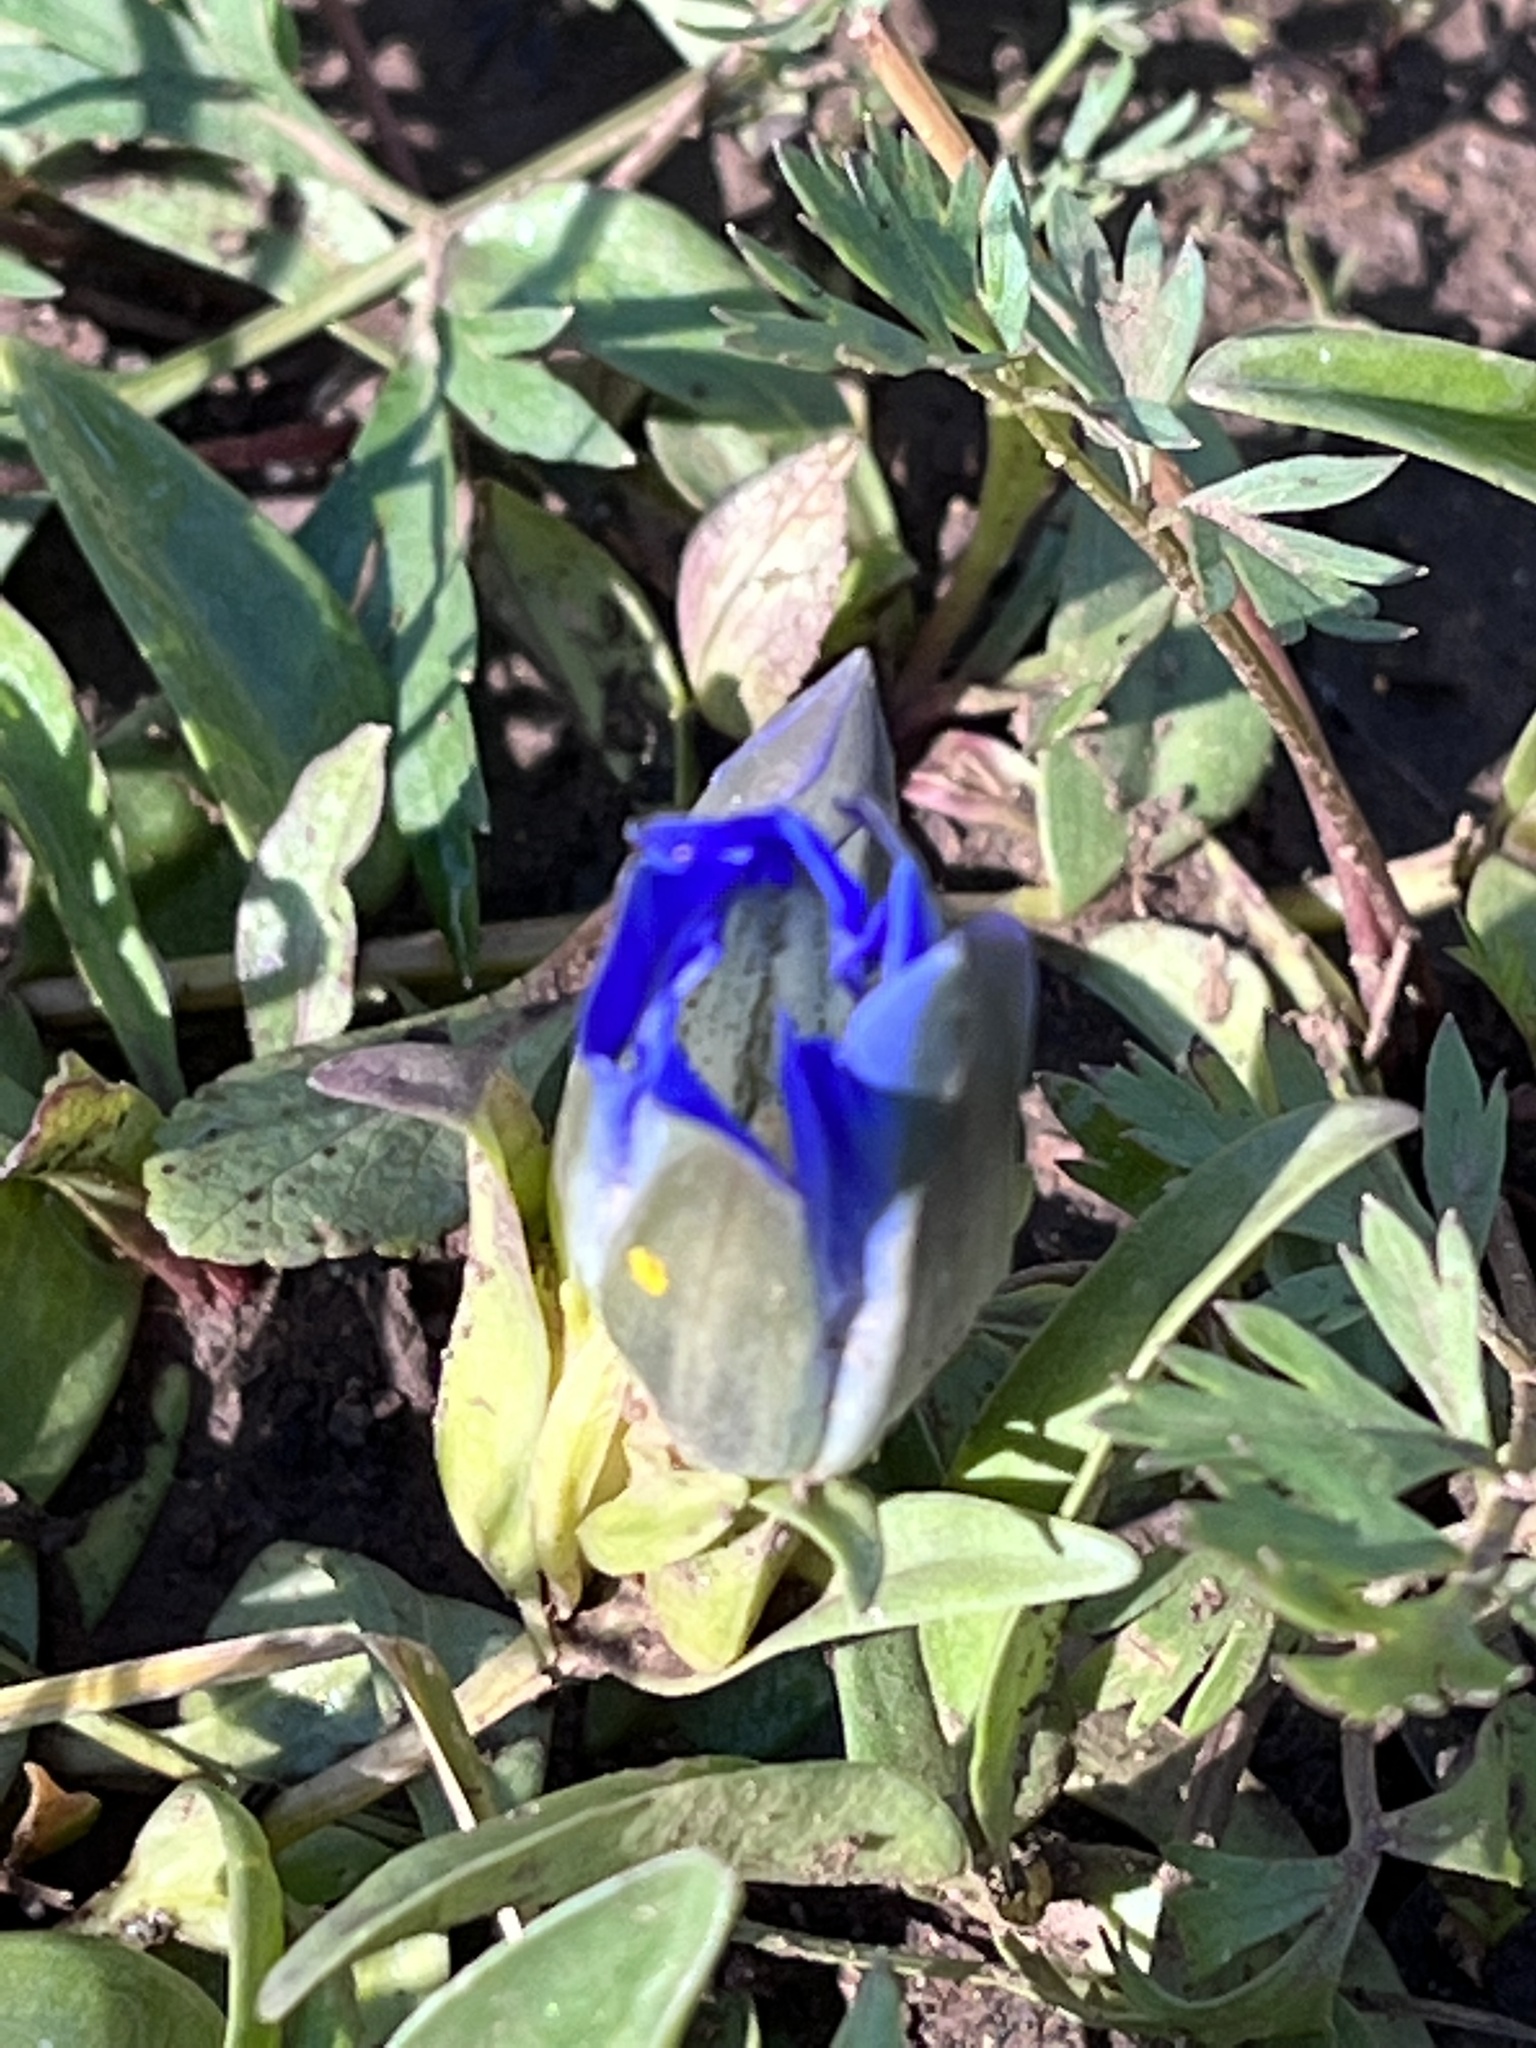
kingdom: Plantae
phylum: Tracheophyta
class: Magnoliopsida
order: Gentianales
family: Gentianaceae
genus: Gentiana
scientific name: Gentiana parryi
